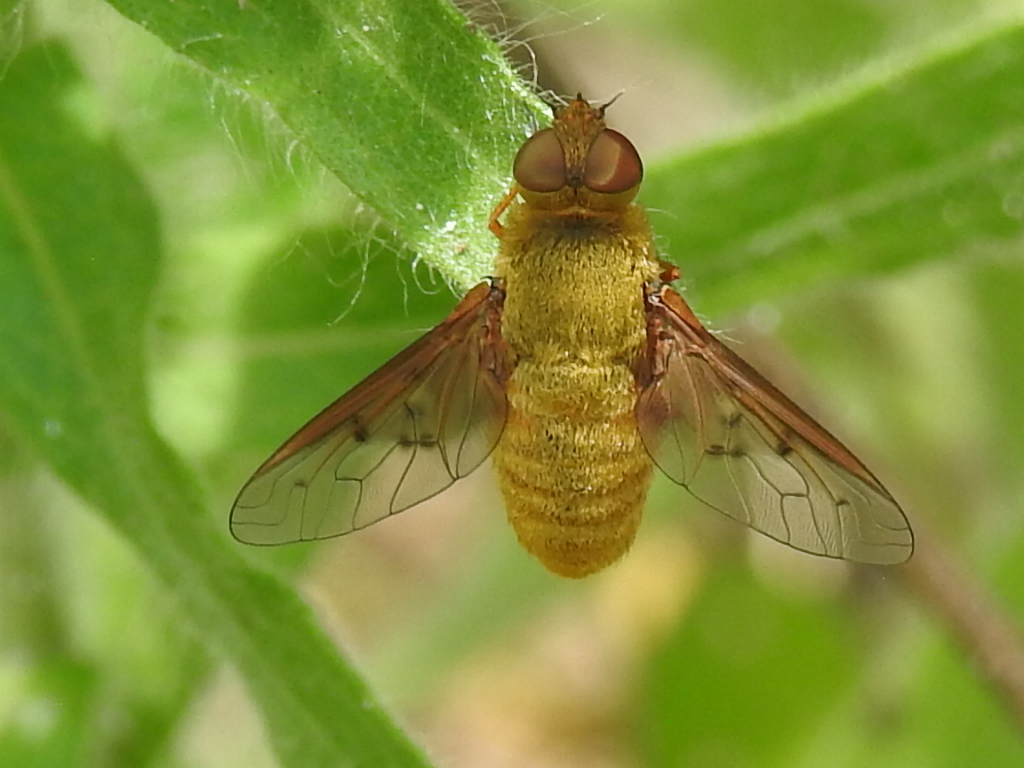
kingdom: Animalia
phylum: Arthropoda
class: Insecta
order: Diptera
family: Bombyliidae
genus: Chrysanthrax
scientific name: Chrysanthrax edititius
